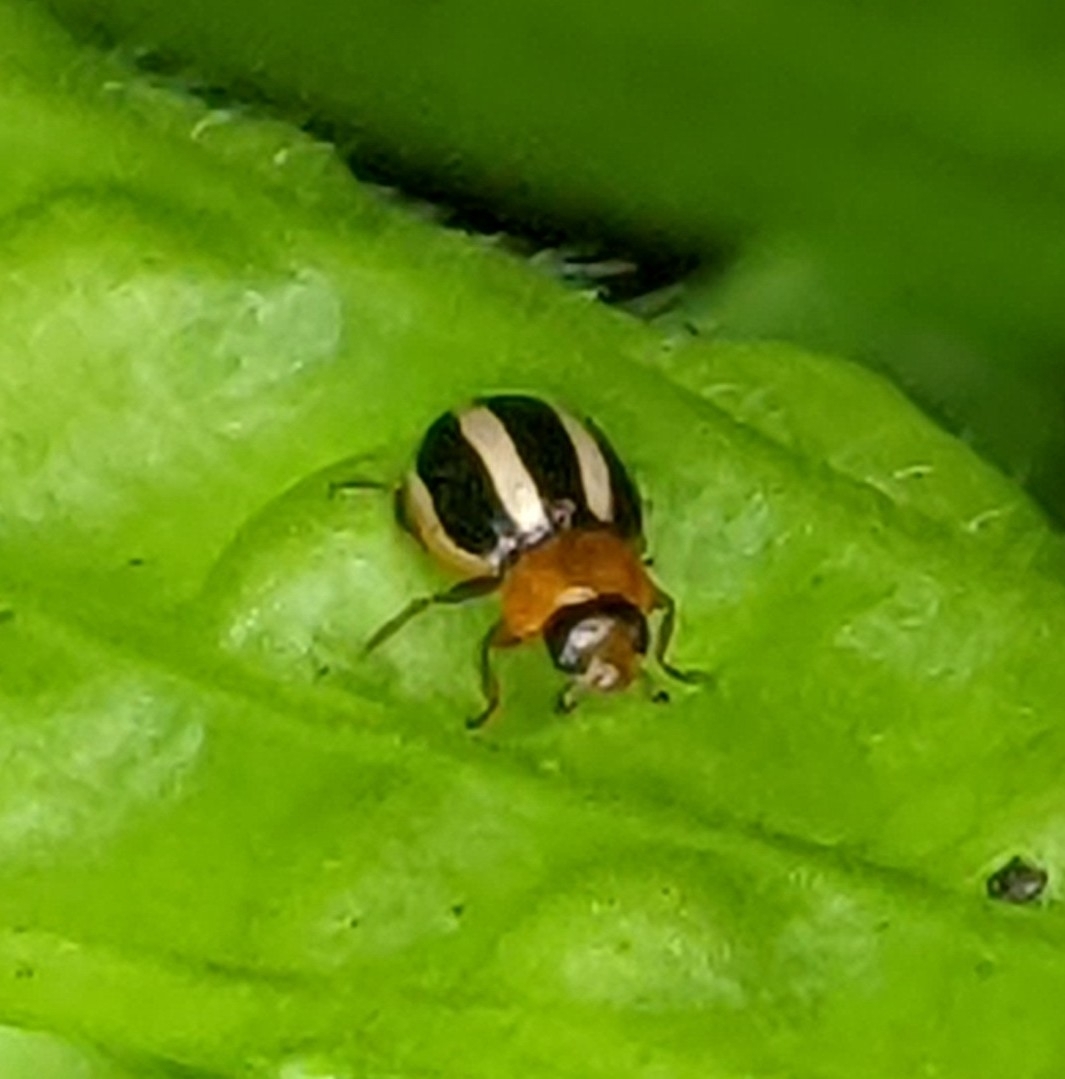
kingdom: Animalia
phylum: Arthropoda
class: Insecta
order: Coleoptera
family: Coccinellidae
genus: Brumoides
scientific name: Brumoides suturalis
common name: Threestriped lady beetle
